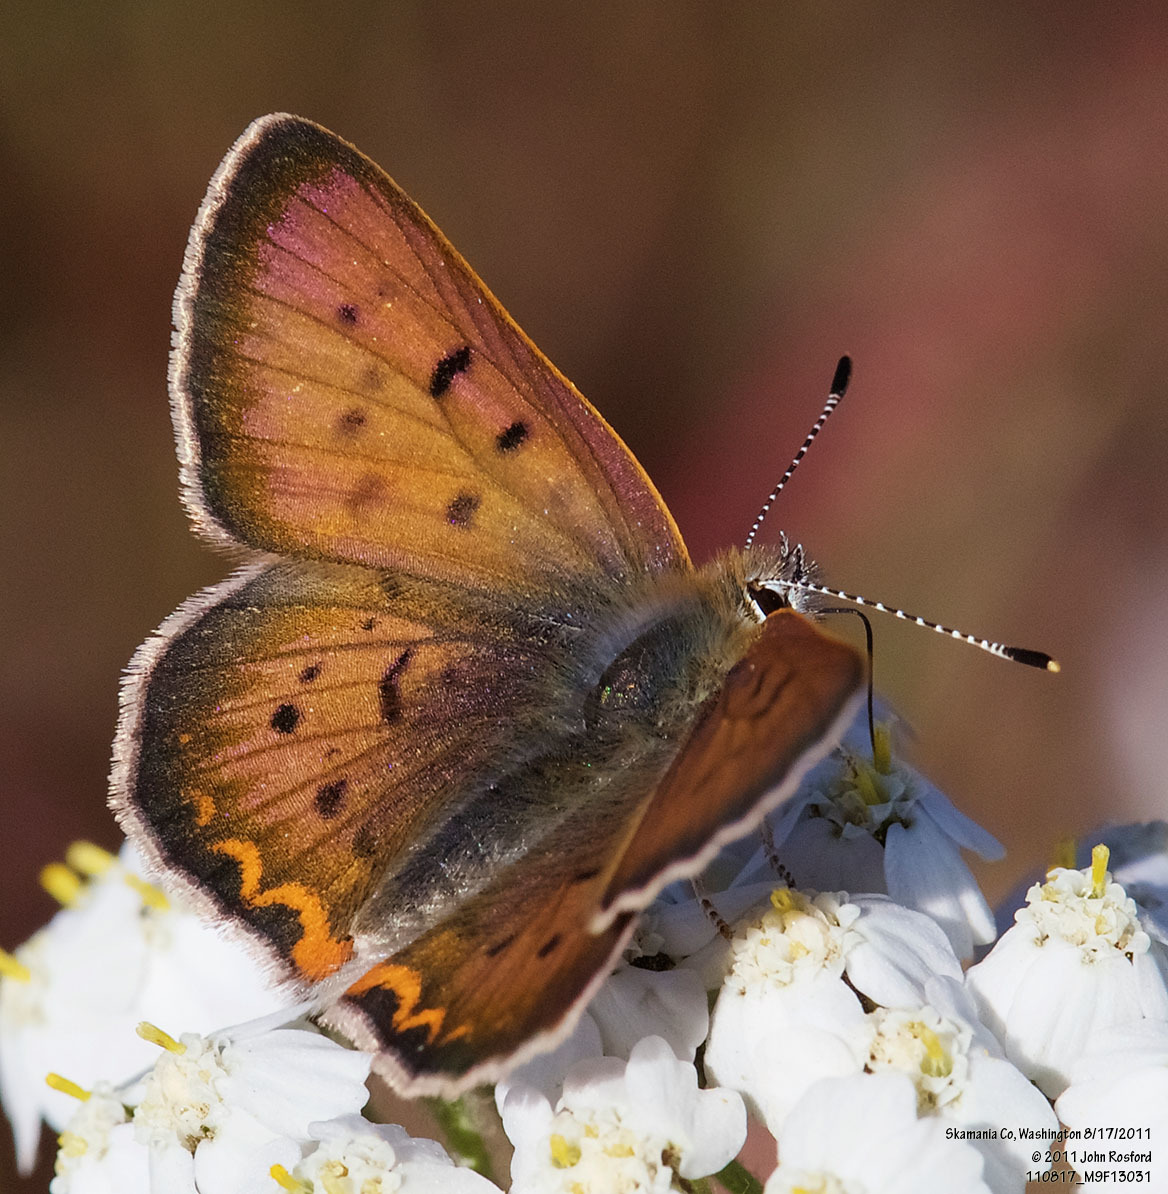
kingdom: Animalia
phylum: Arthropoda
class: Insecta
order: Lepidoptera
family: Lycaenidae
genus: Tharsalea
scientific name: Tharsalea helloides
